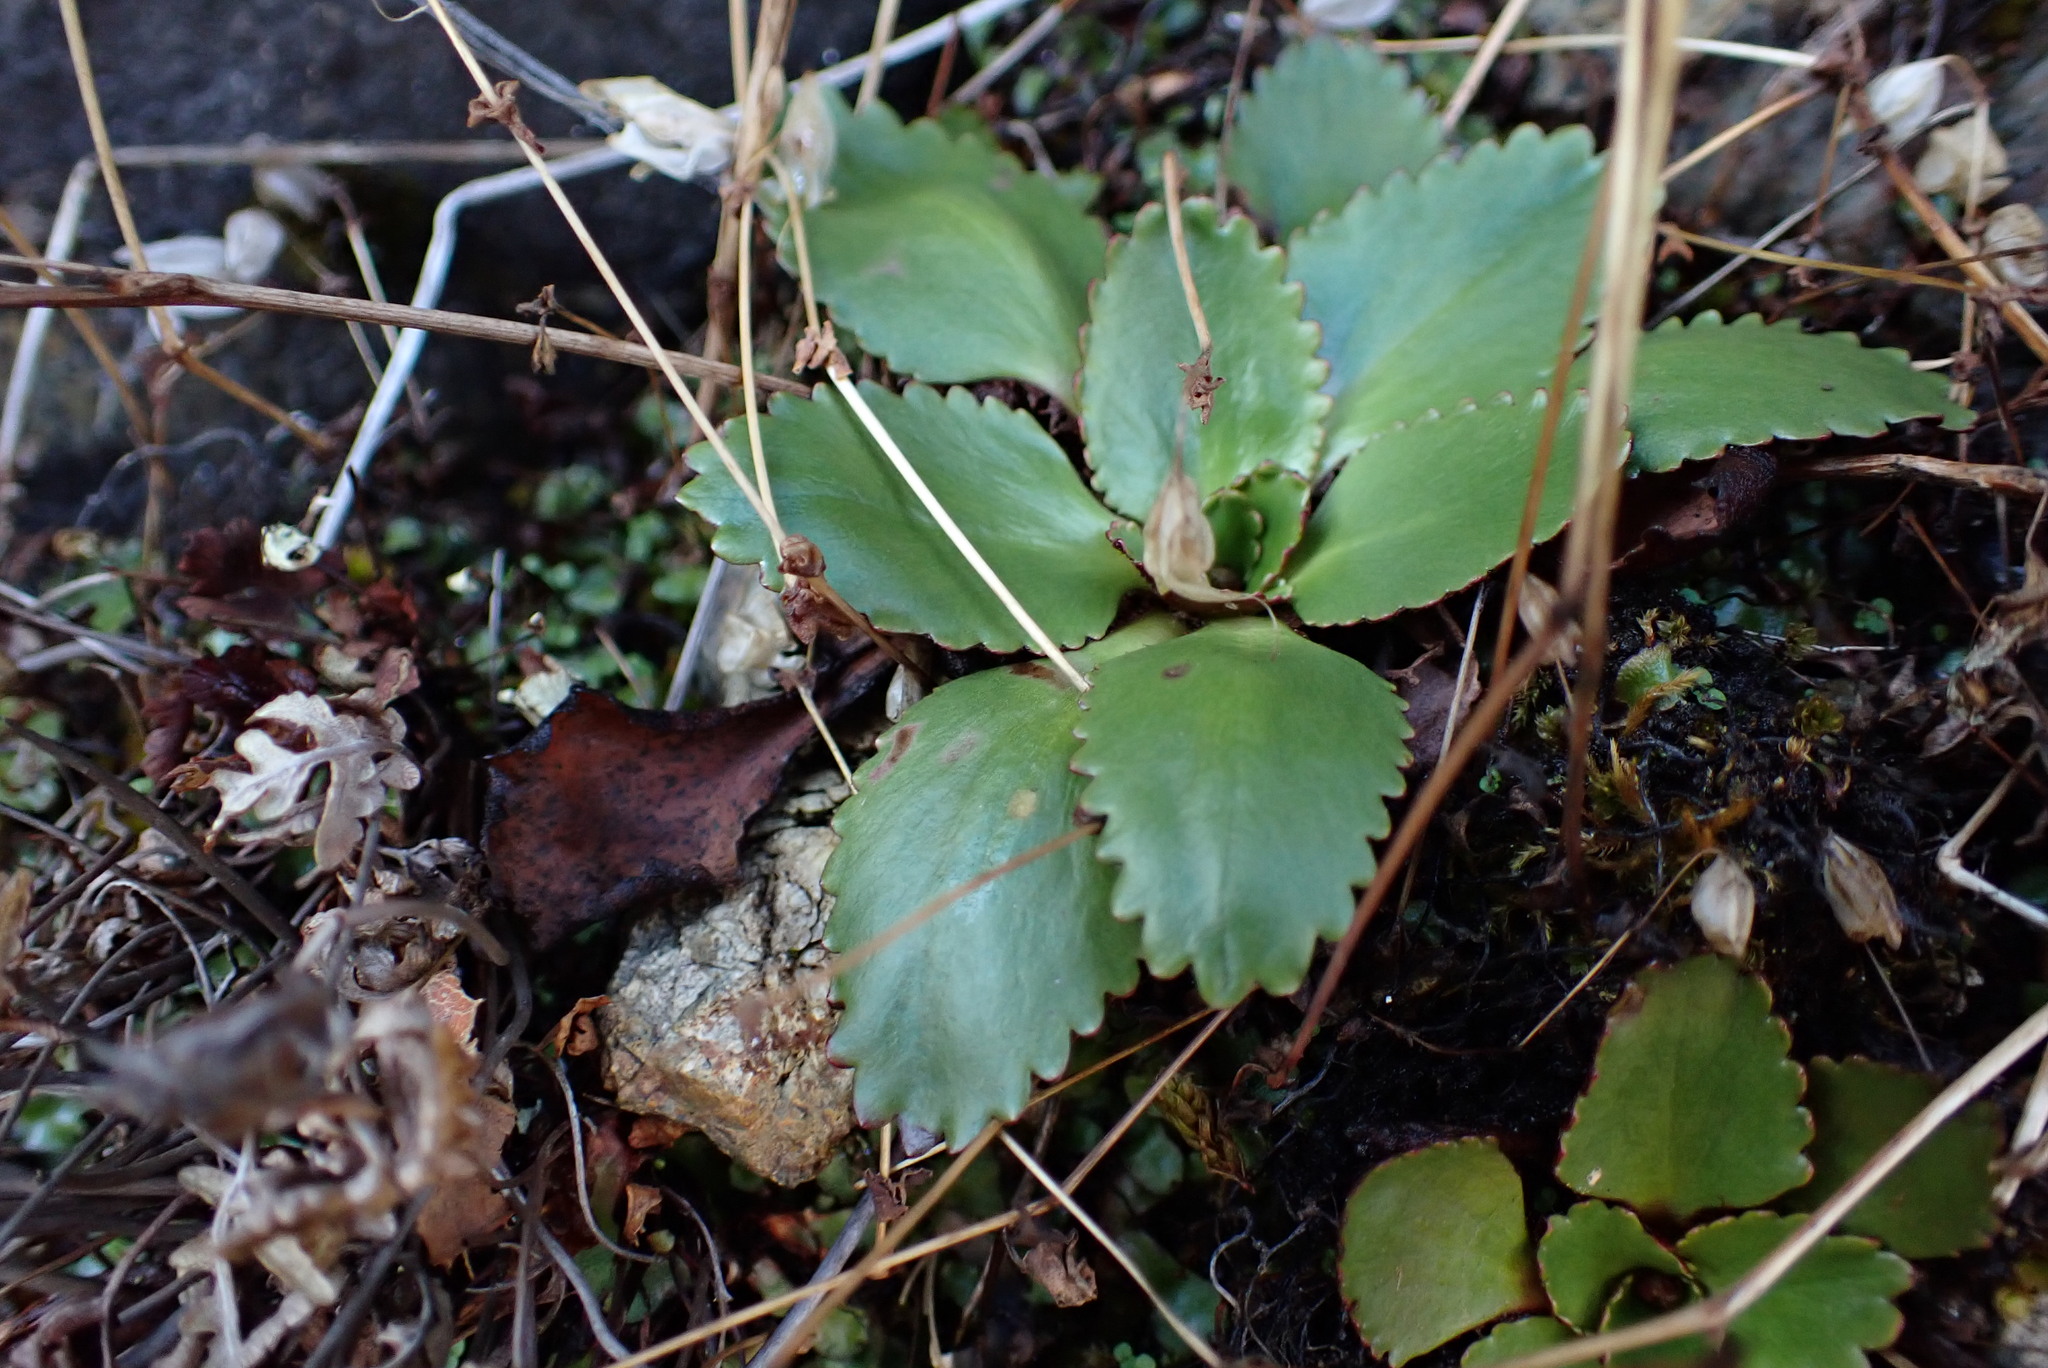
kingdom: Plantae
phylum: Tracheophyta
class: Magnoliopsida
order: Saxifragales
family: Saxifragaceae
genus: Micranthes
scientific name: Micranthes rufidula
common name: Rustyhair saxifrage
